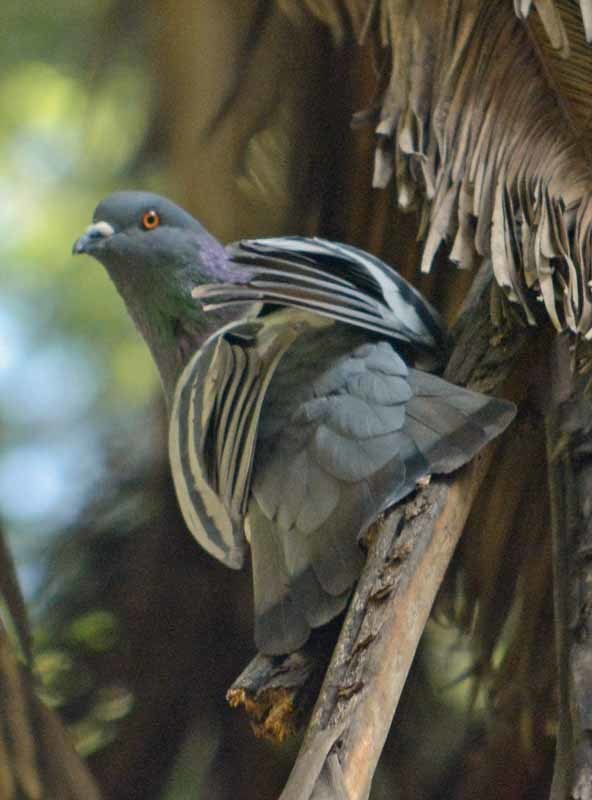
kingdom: Animalia
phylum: Chordata
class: Aves
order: Columbiformes
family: Columbidae
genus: Columba
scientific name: Columba livia
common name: Rock pigeon
